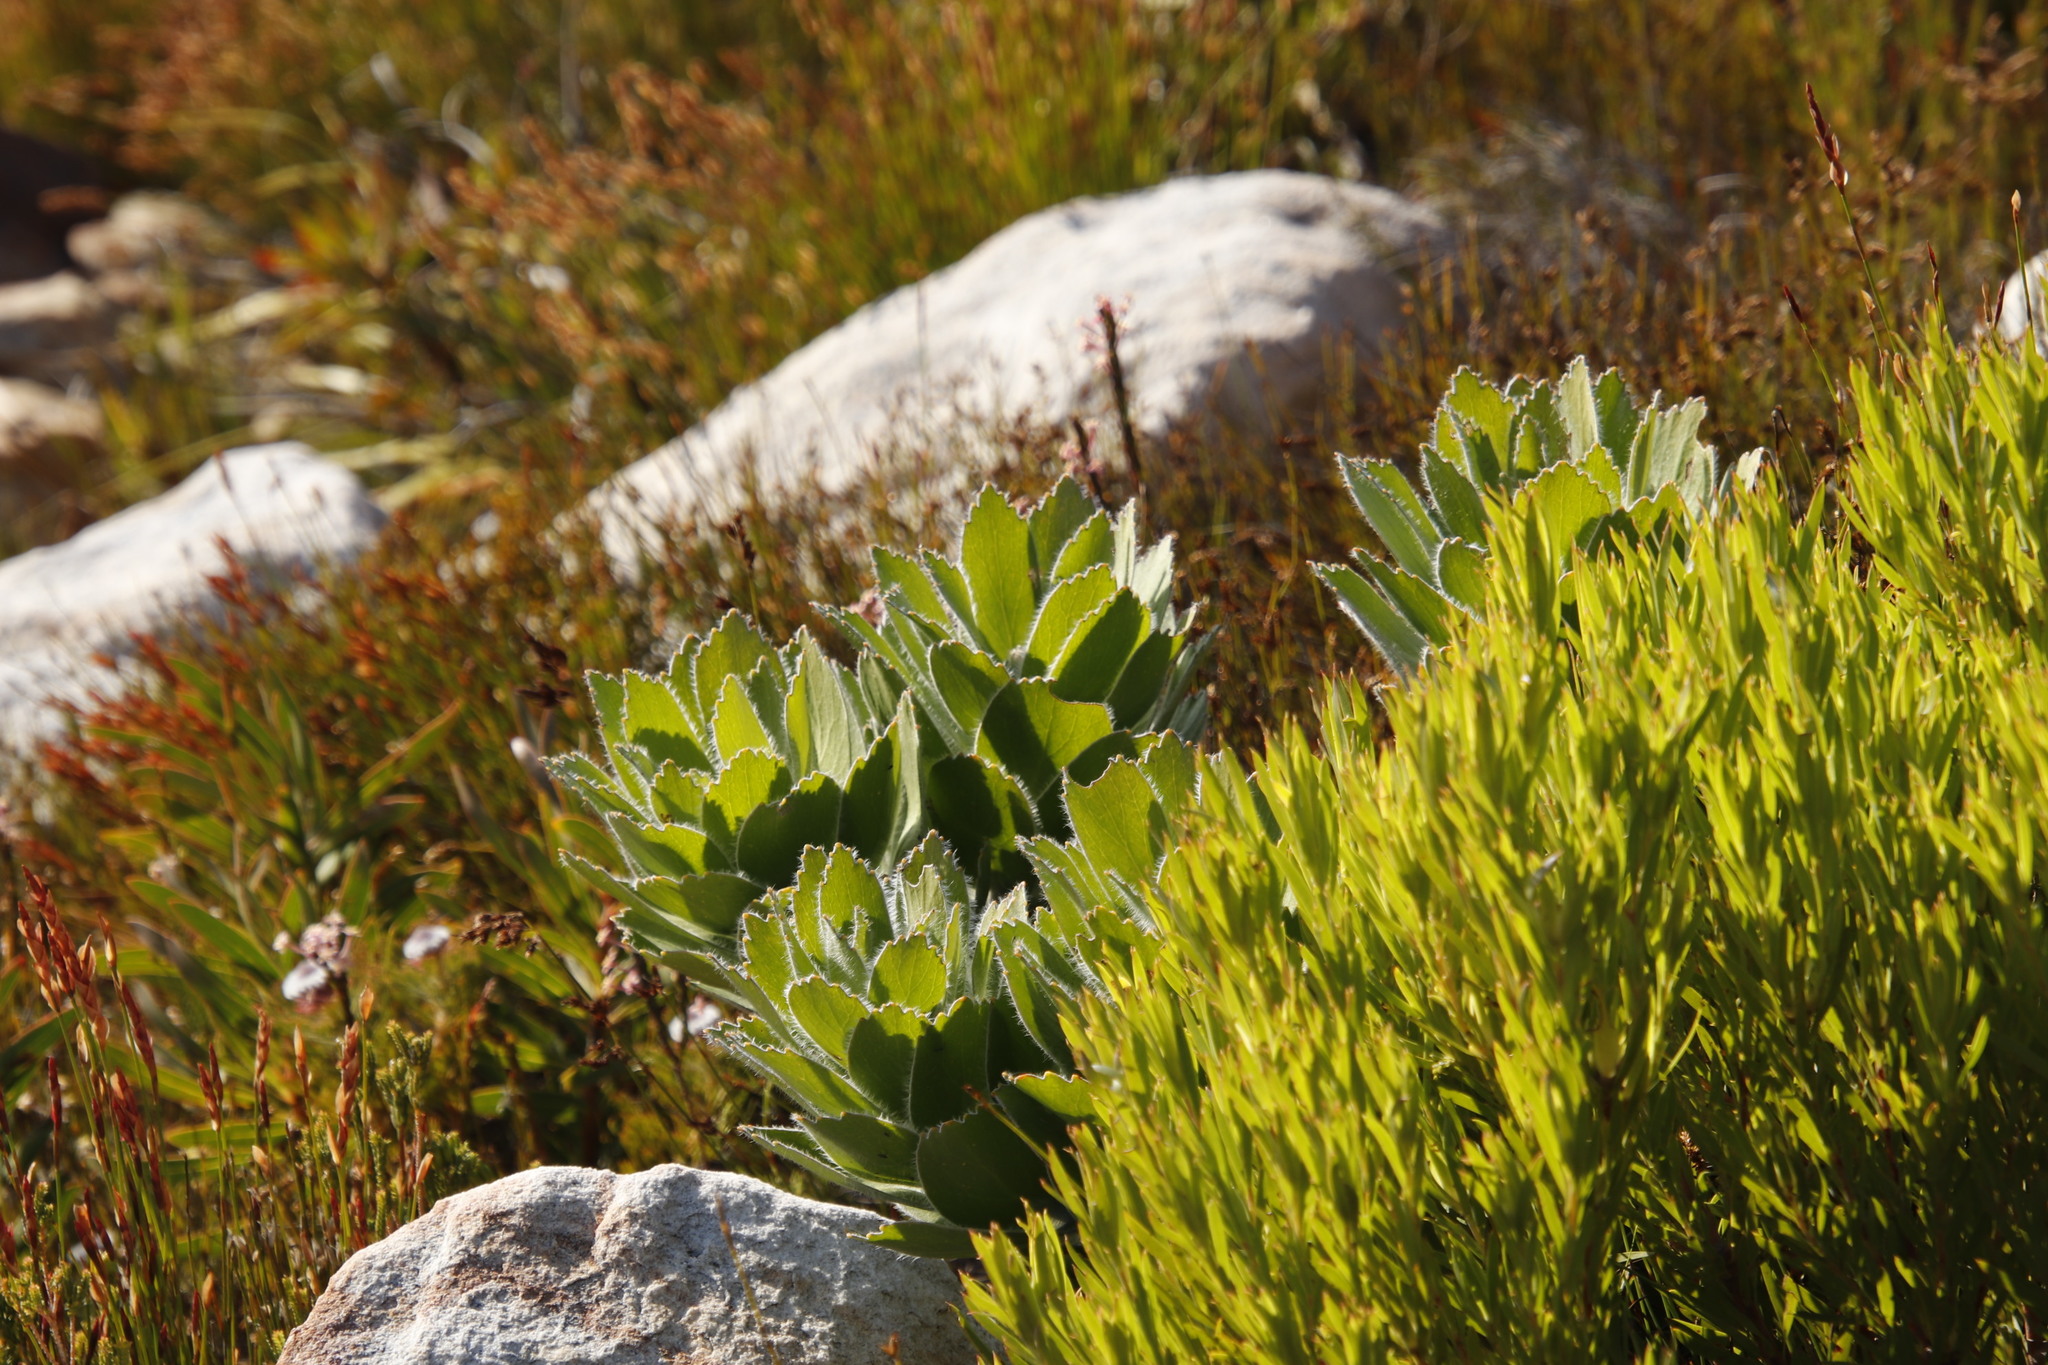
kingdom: Plantae
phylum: Tracheophyta
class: Magnoliopsida
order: Proteales
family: Proteaceae
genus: Leucospermum
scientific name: Leucospermum conocarpodendron
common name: Tree pincushion
